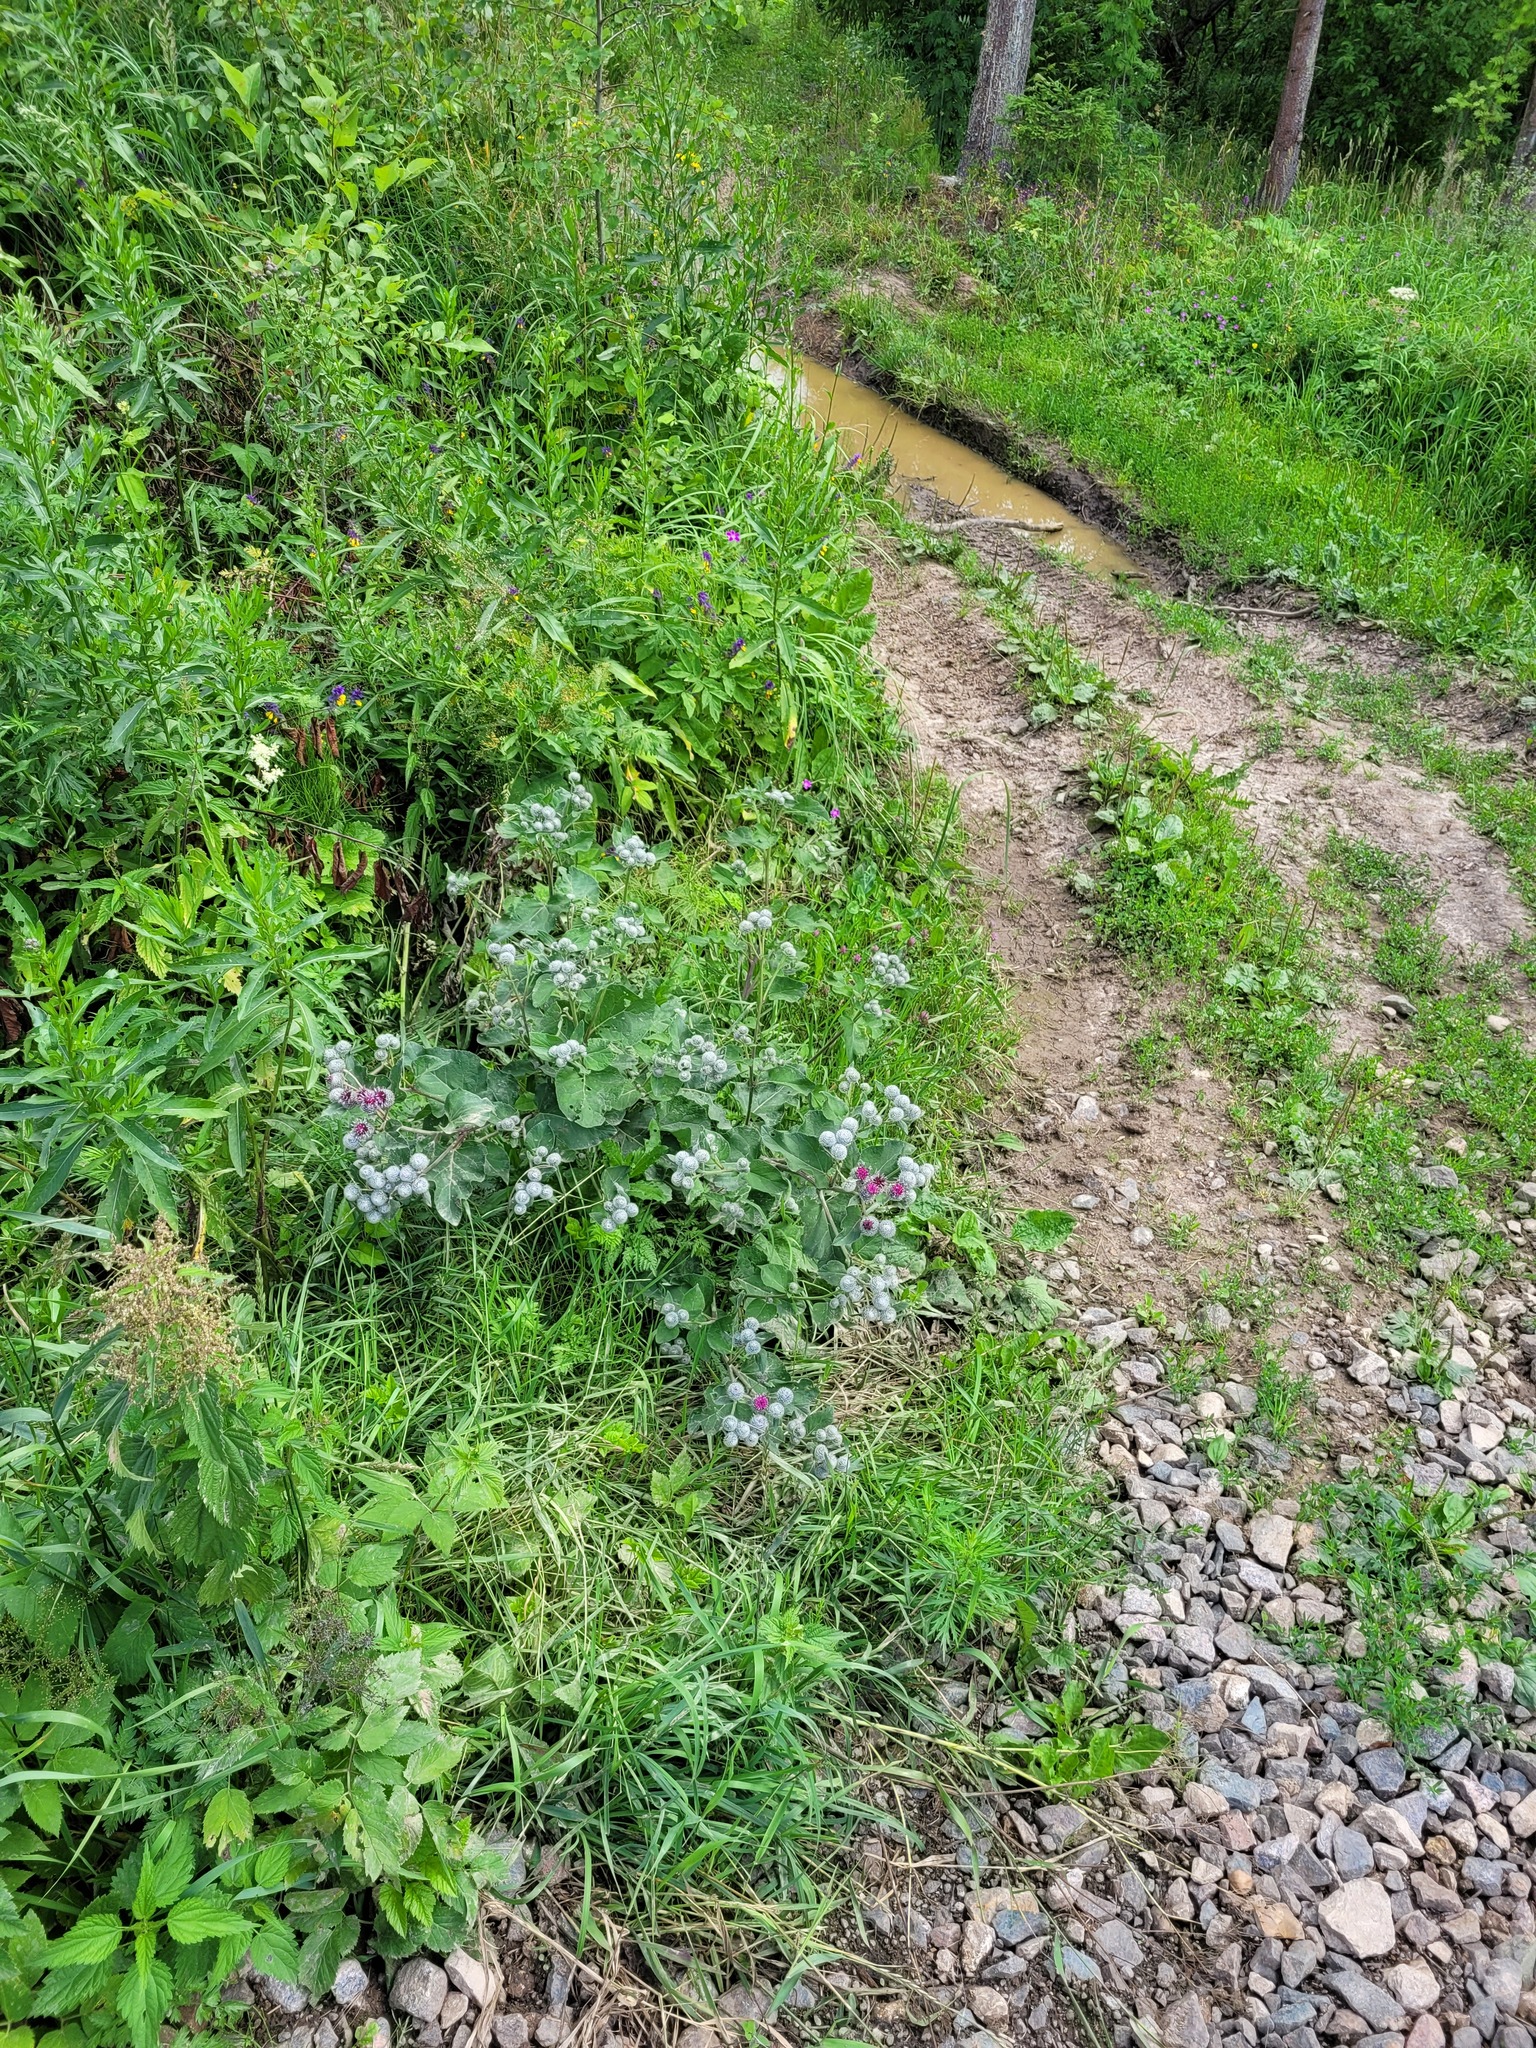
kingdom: Plantae
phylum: Tracheophyta
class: Magnoliopsida
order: Asterales
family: Asteraceae
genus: Arctium
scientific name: Arctium tomentosum
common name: Woolly burdock
